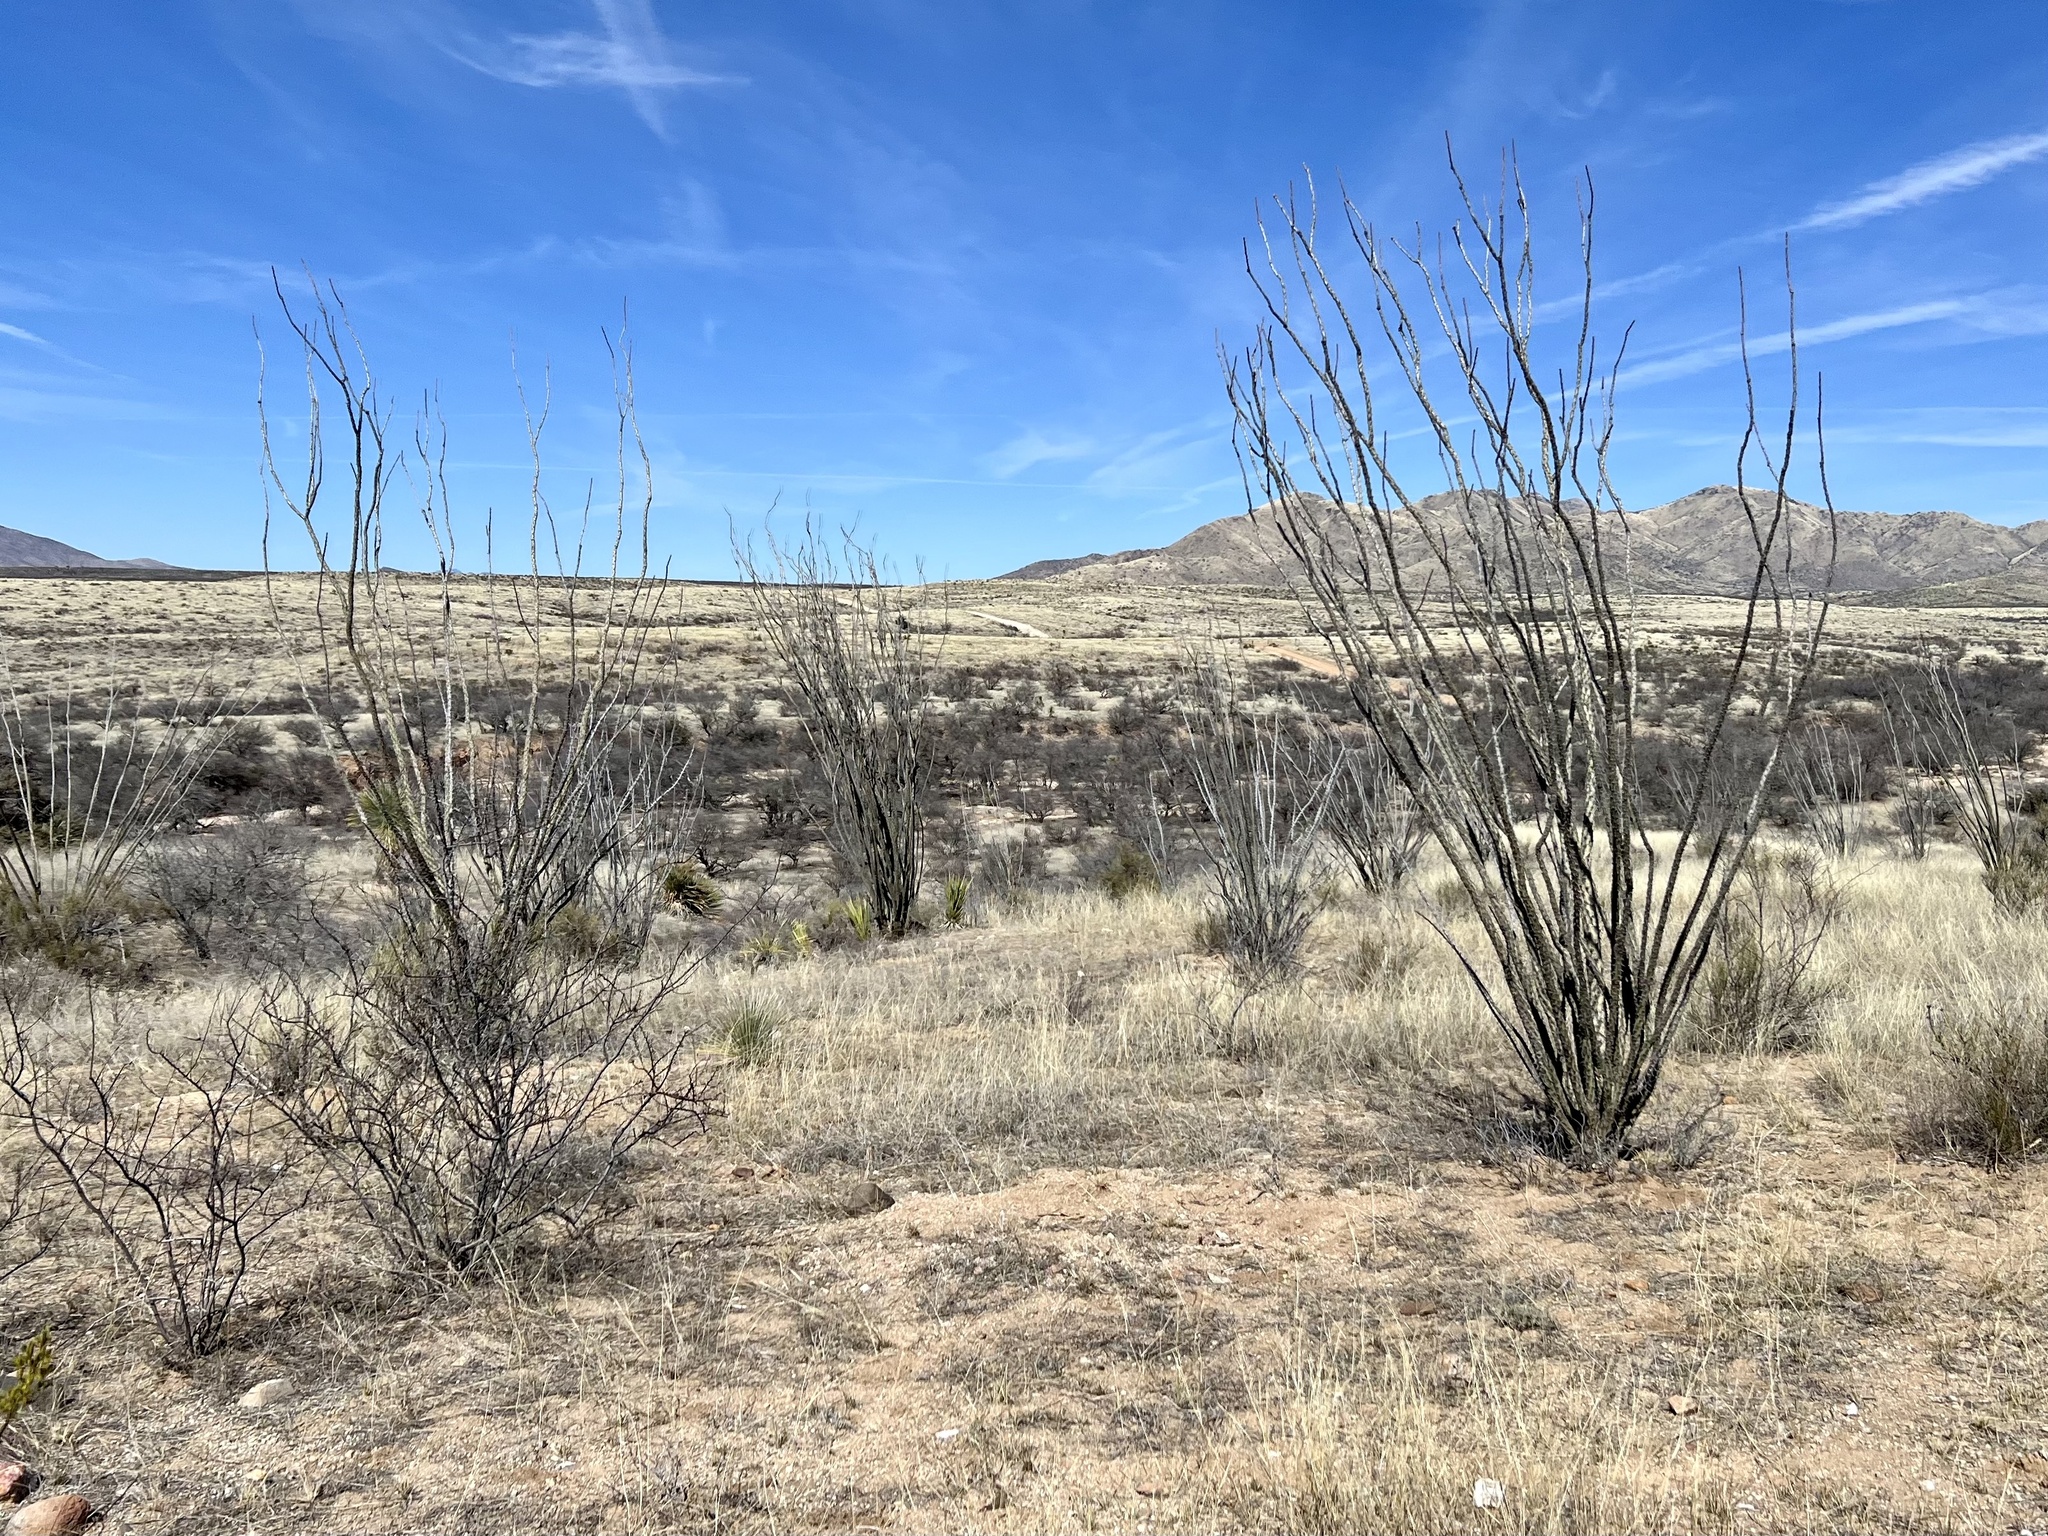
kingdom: Plantae
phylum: Tracheophyta
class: Magnoliopsida
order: Ericales
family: Fouquieriaceae
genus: Fouquieria
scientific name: Fouquieria splendens
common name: Vine-cactus
